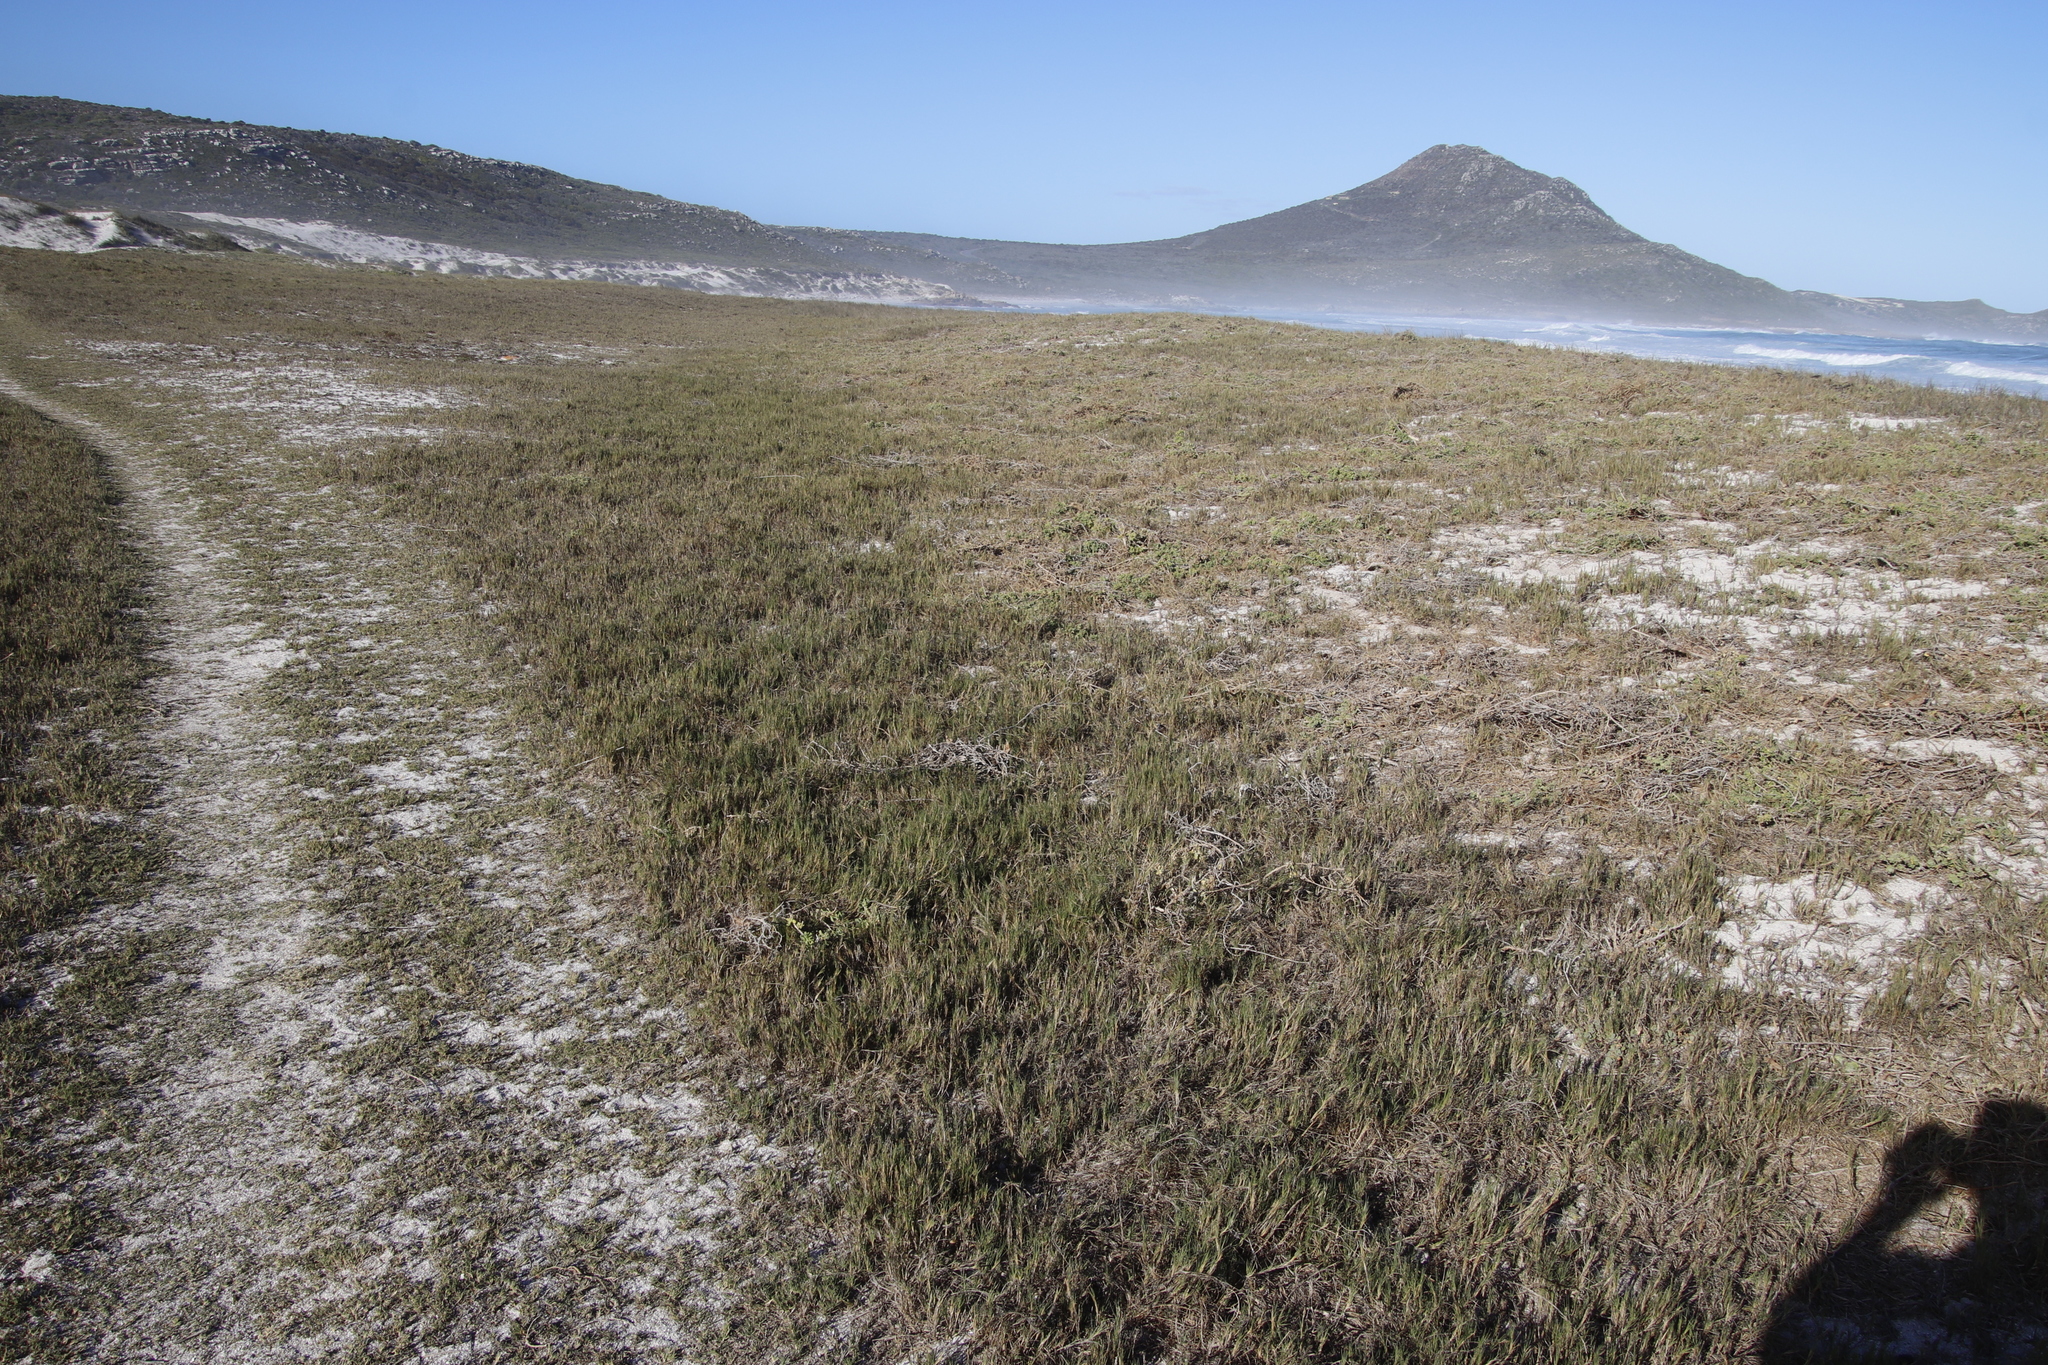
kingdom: Plantae
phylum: Tracheophyta
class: Liliopsida
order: Poales
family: Poaceae
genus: Sporobolus
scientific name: Sporobolus virginicus
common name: Beach dropseed
